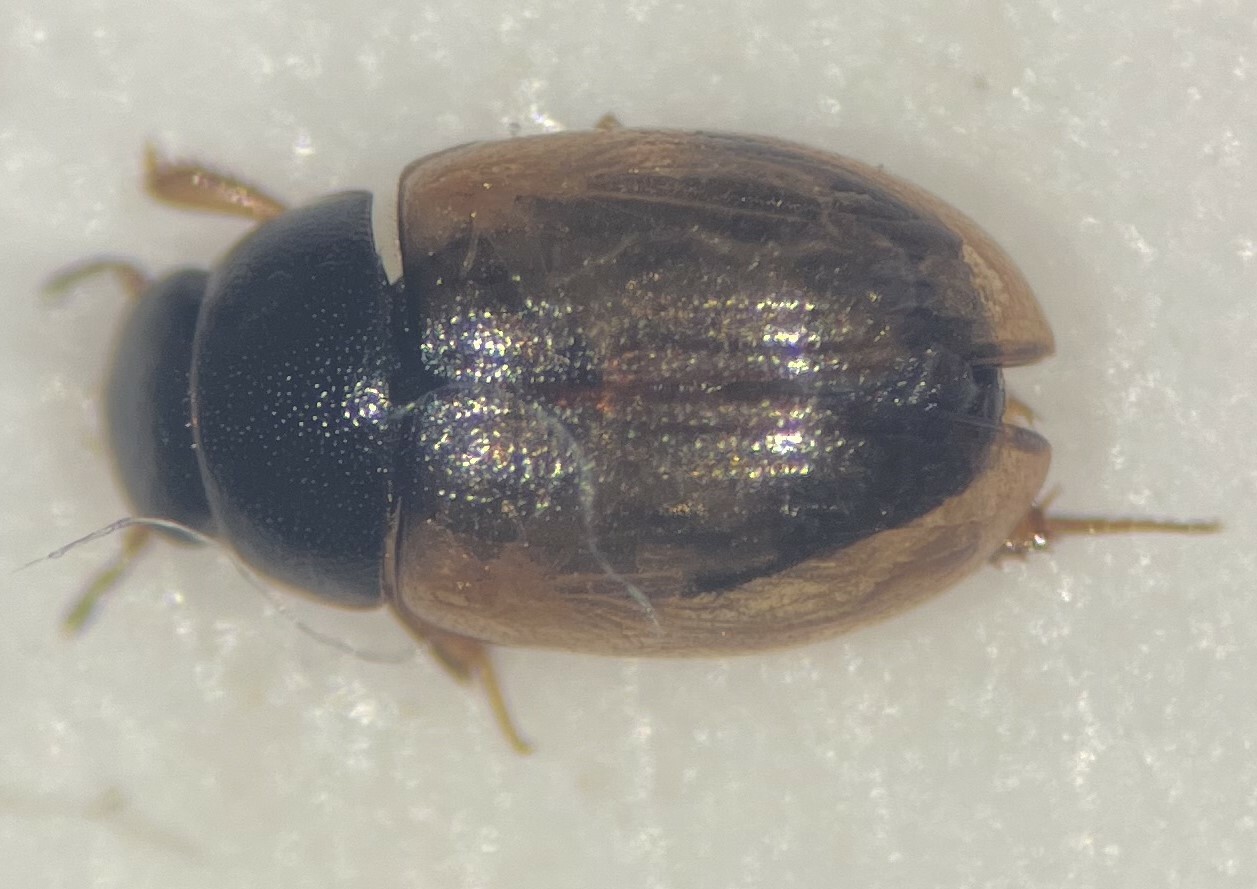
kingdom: Animalia
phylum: Arthropoda
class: Insecta
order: Coleoptera
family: Hydrophilidae
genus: Cercyon
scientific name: Cercyon quisquilius
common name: Water scavenger beetle
